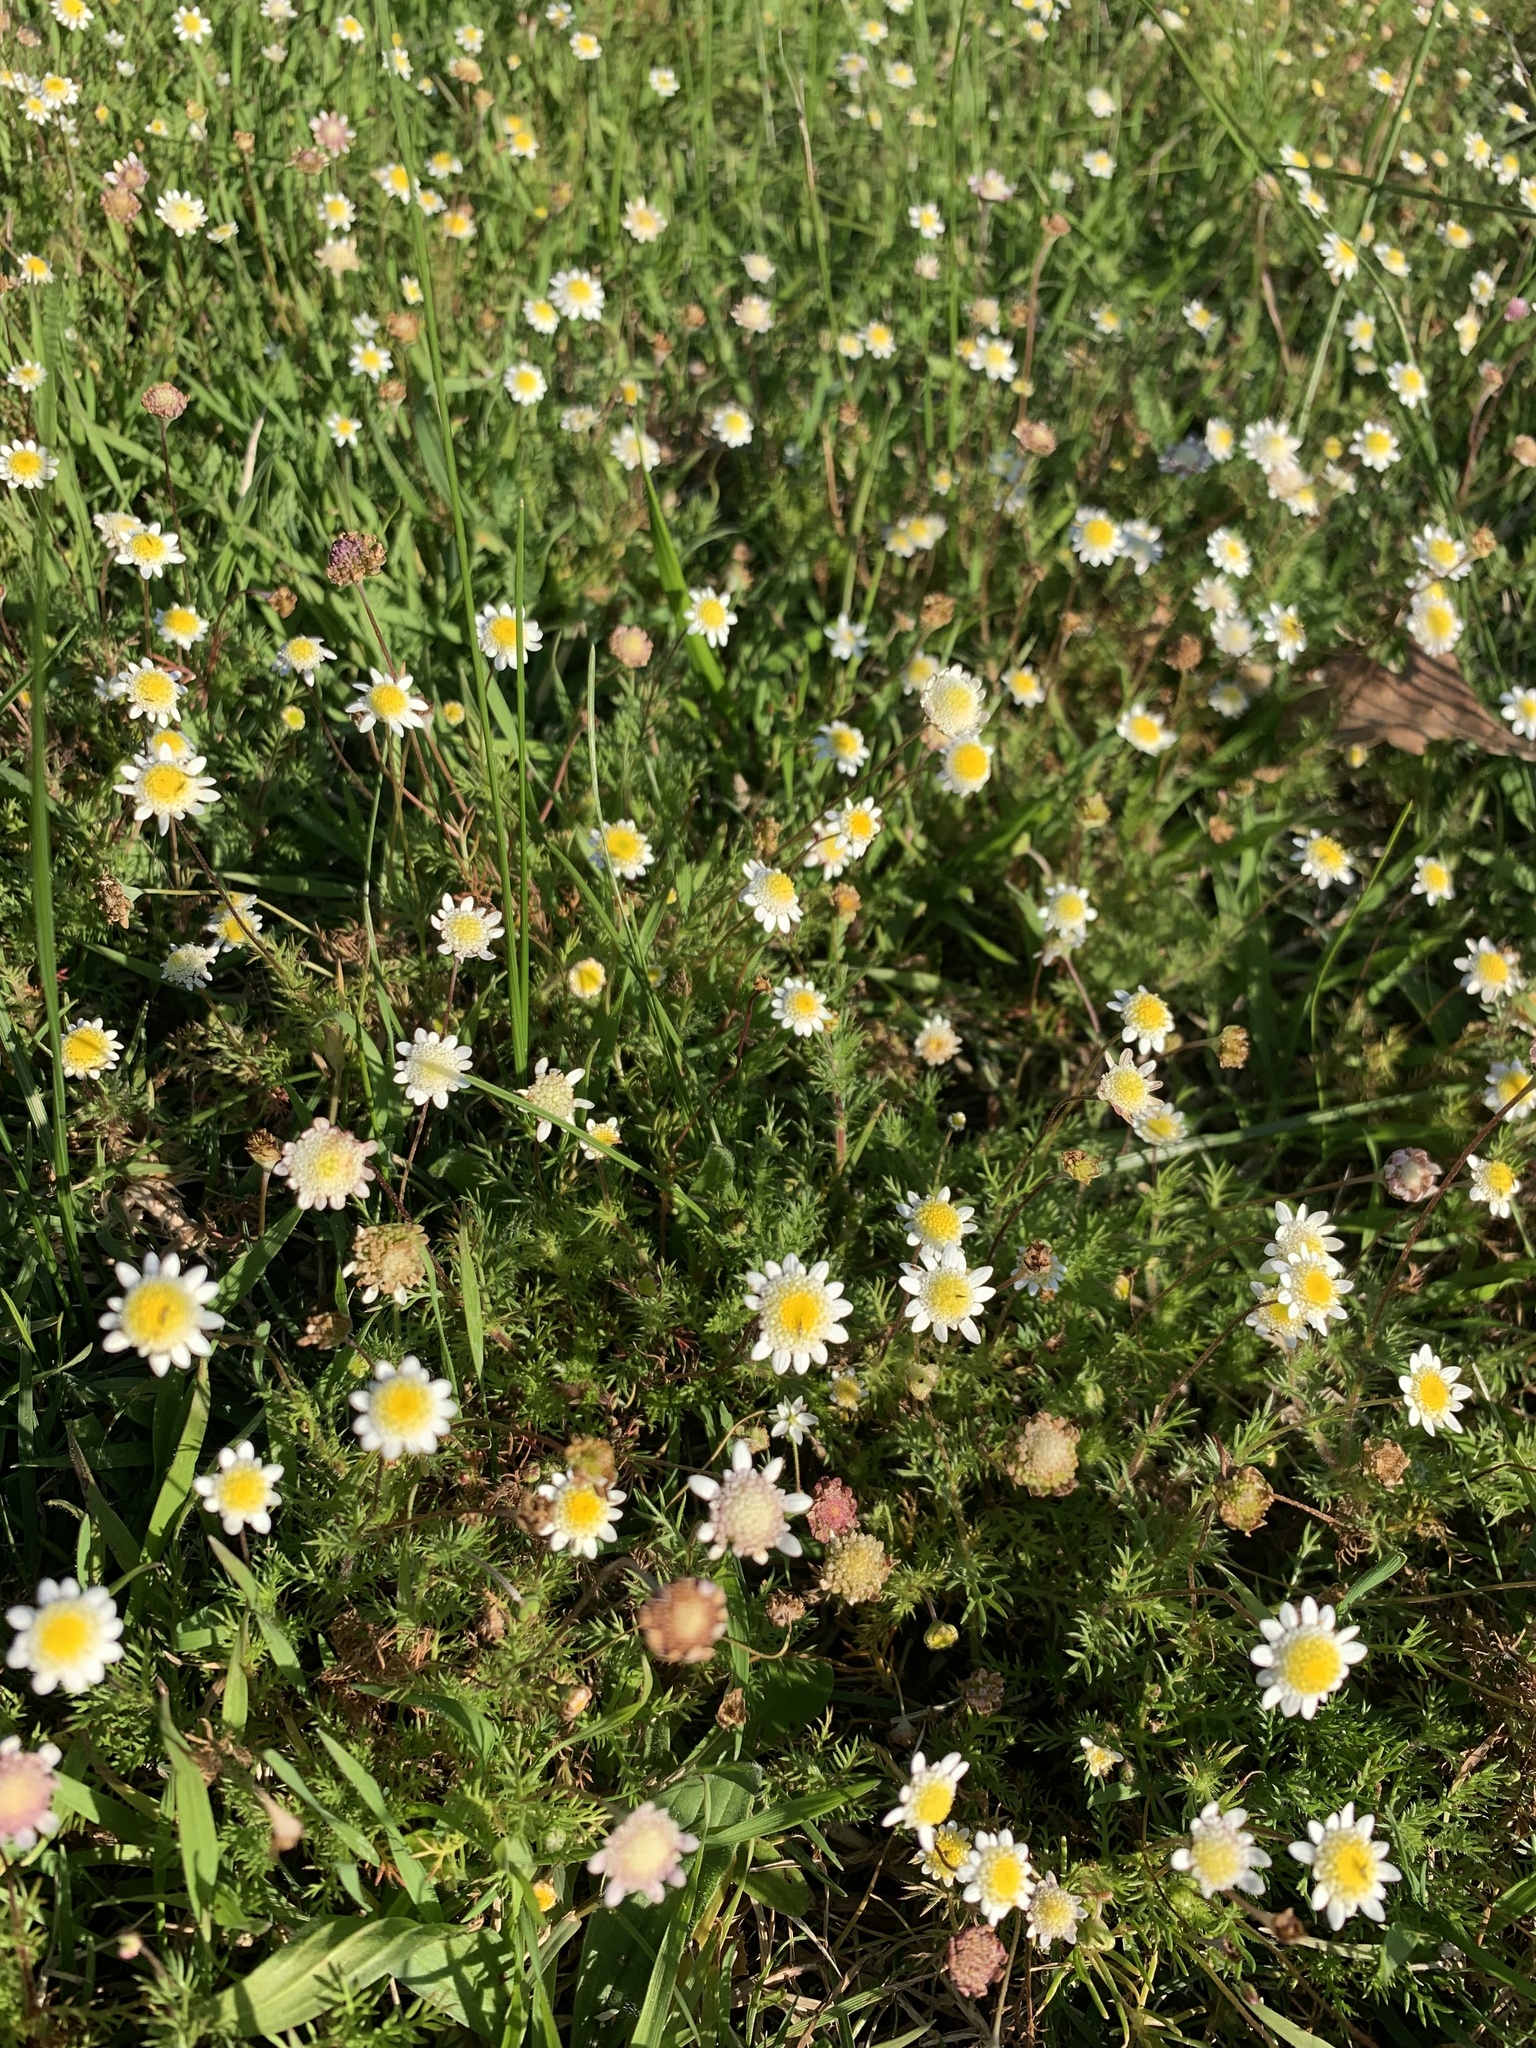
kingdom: Plantae
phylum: Tracheophyta
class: Magnoliopsida
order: Asterales
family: Asteraceae
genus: Cotula
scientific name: Cotula turbinata
